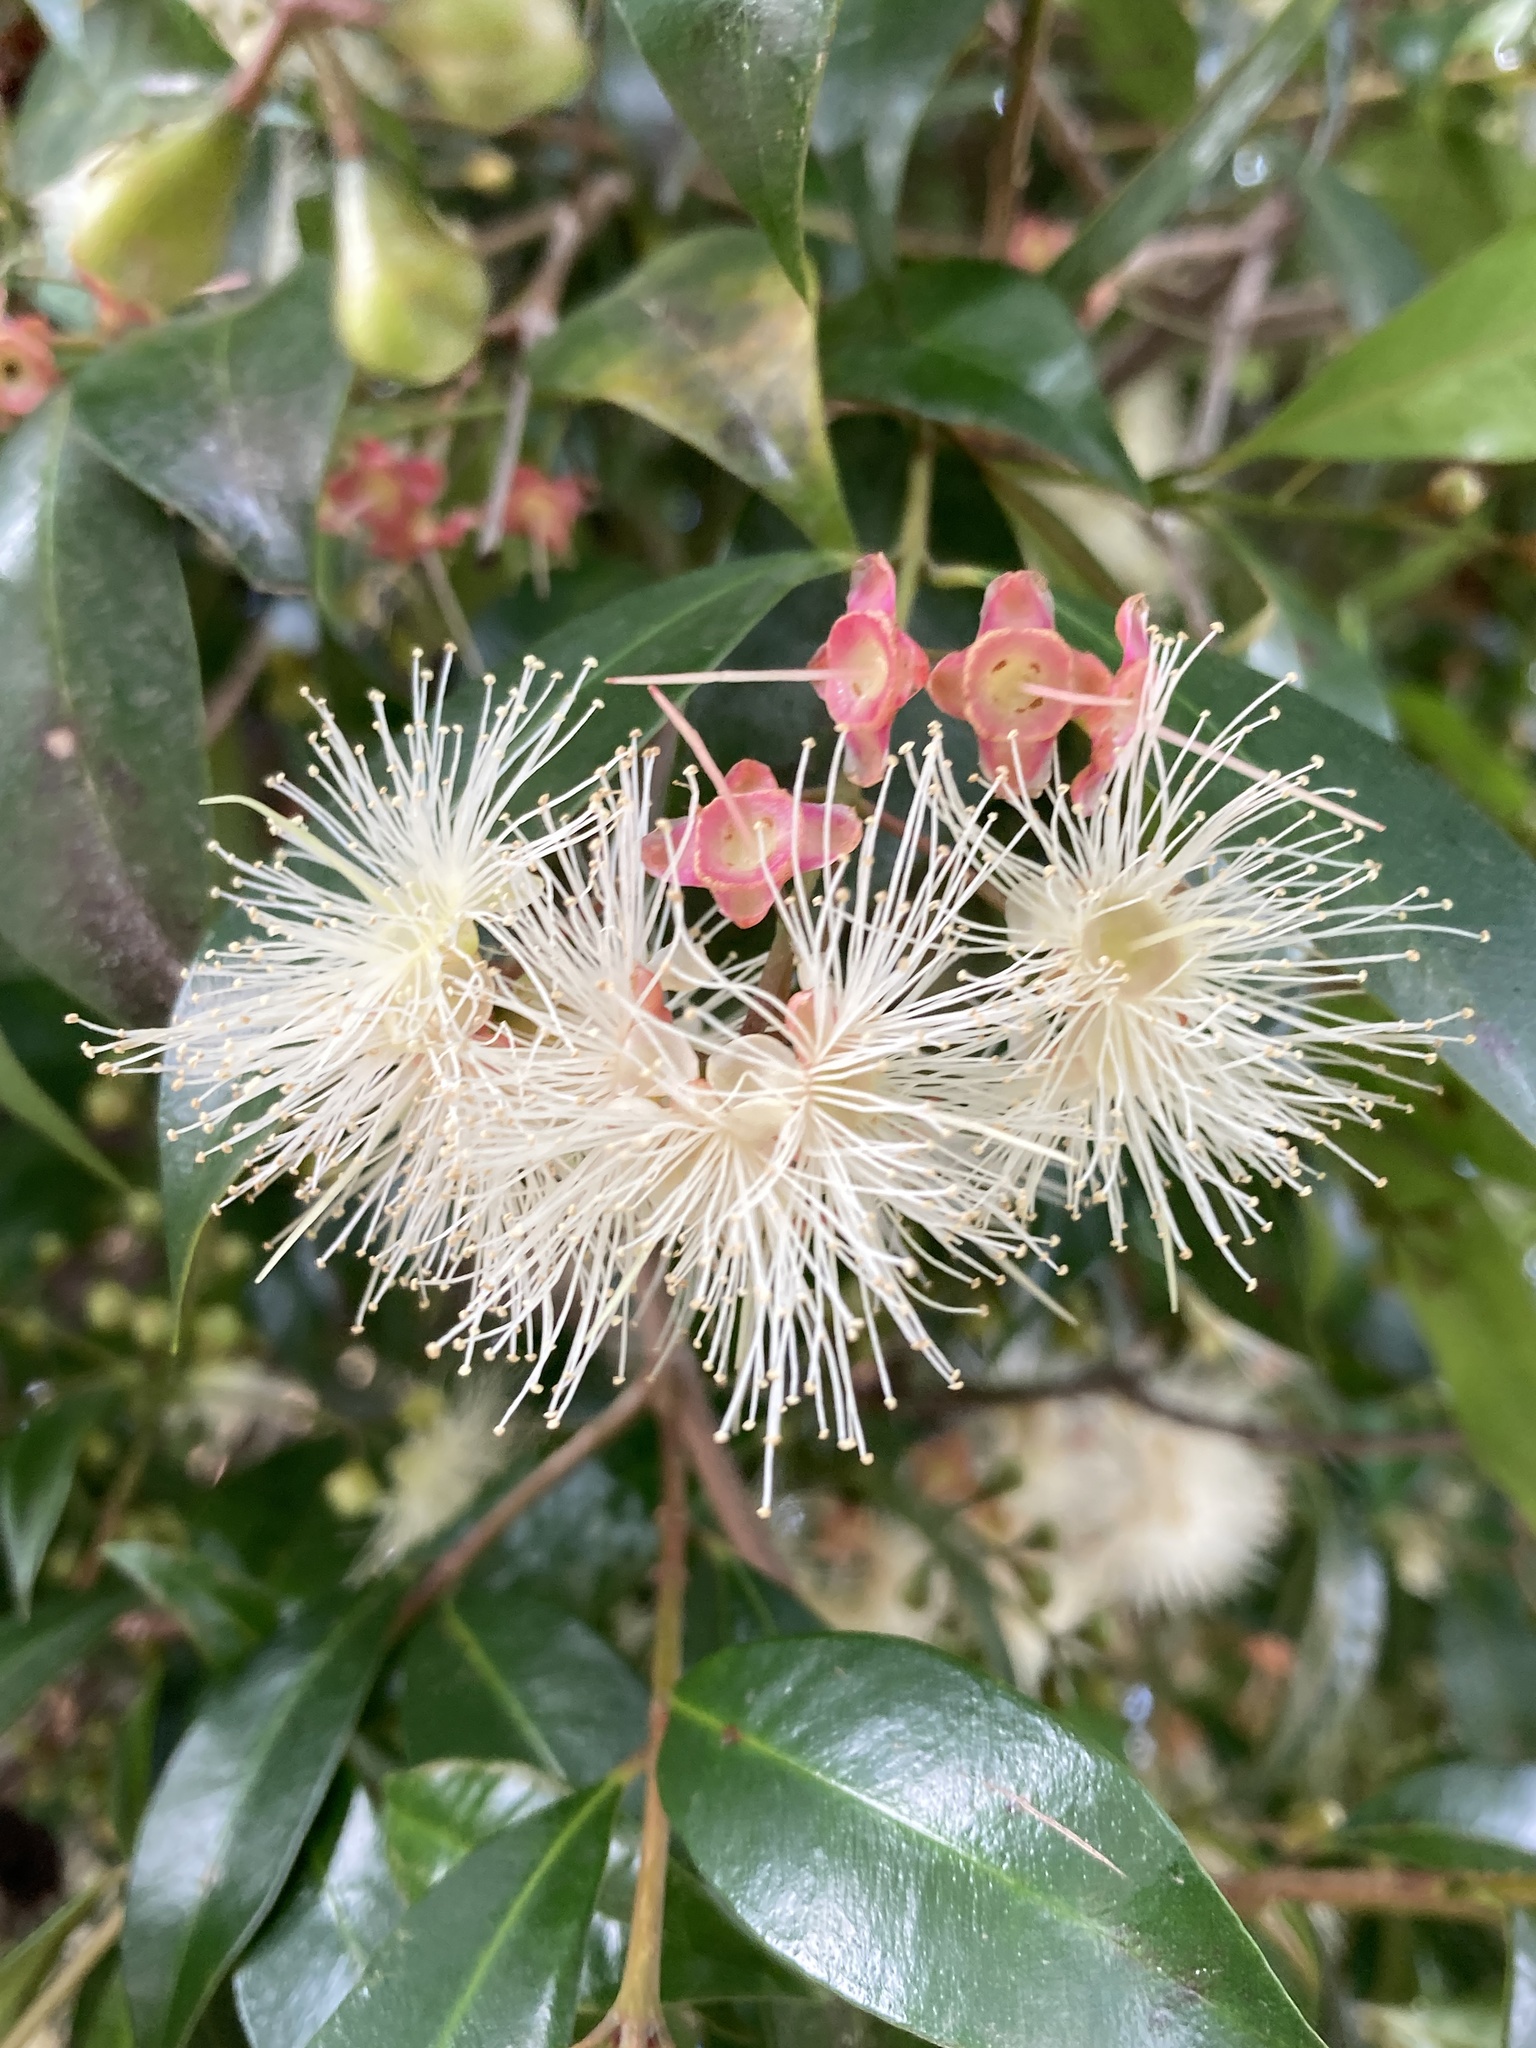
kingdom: Plantae
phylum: Tracheophyta
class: Magnoliopsida
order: Myrtales
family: Myrtaceae
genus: Syzygium
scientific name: Syzygium paniculatum
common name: Magenta lilly-pilly
